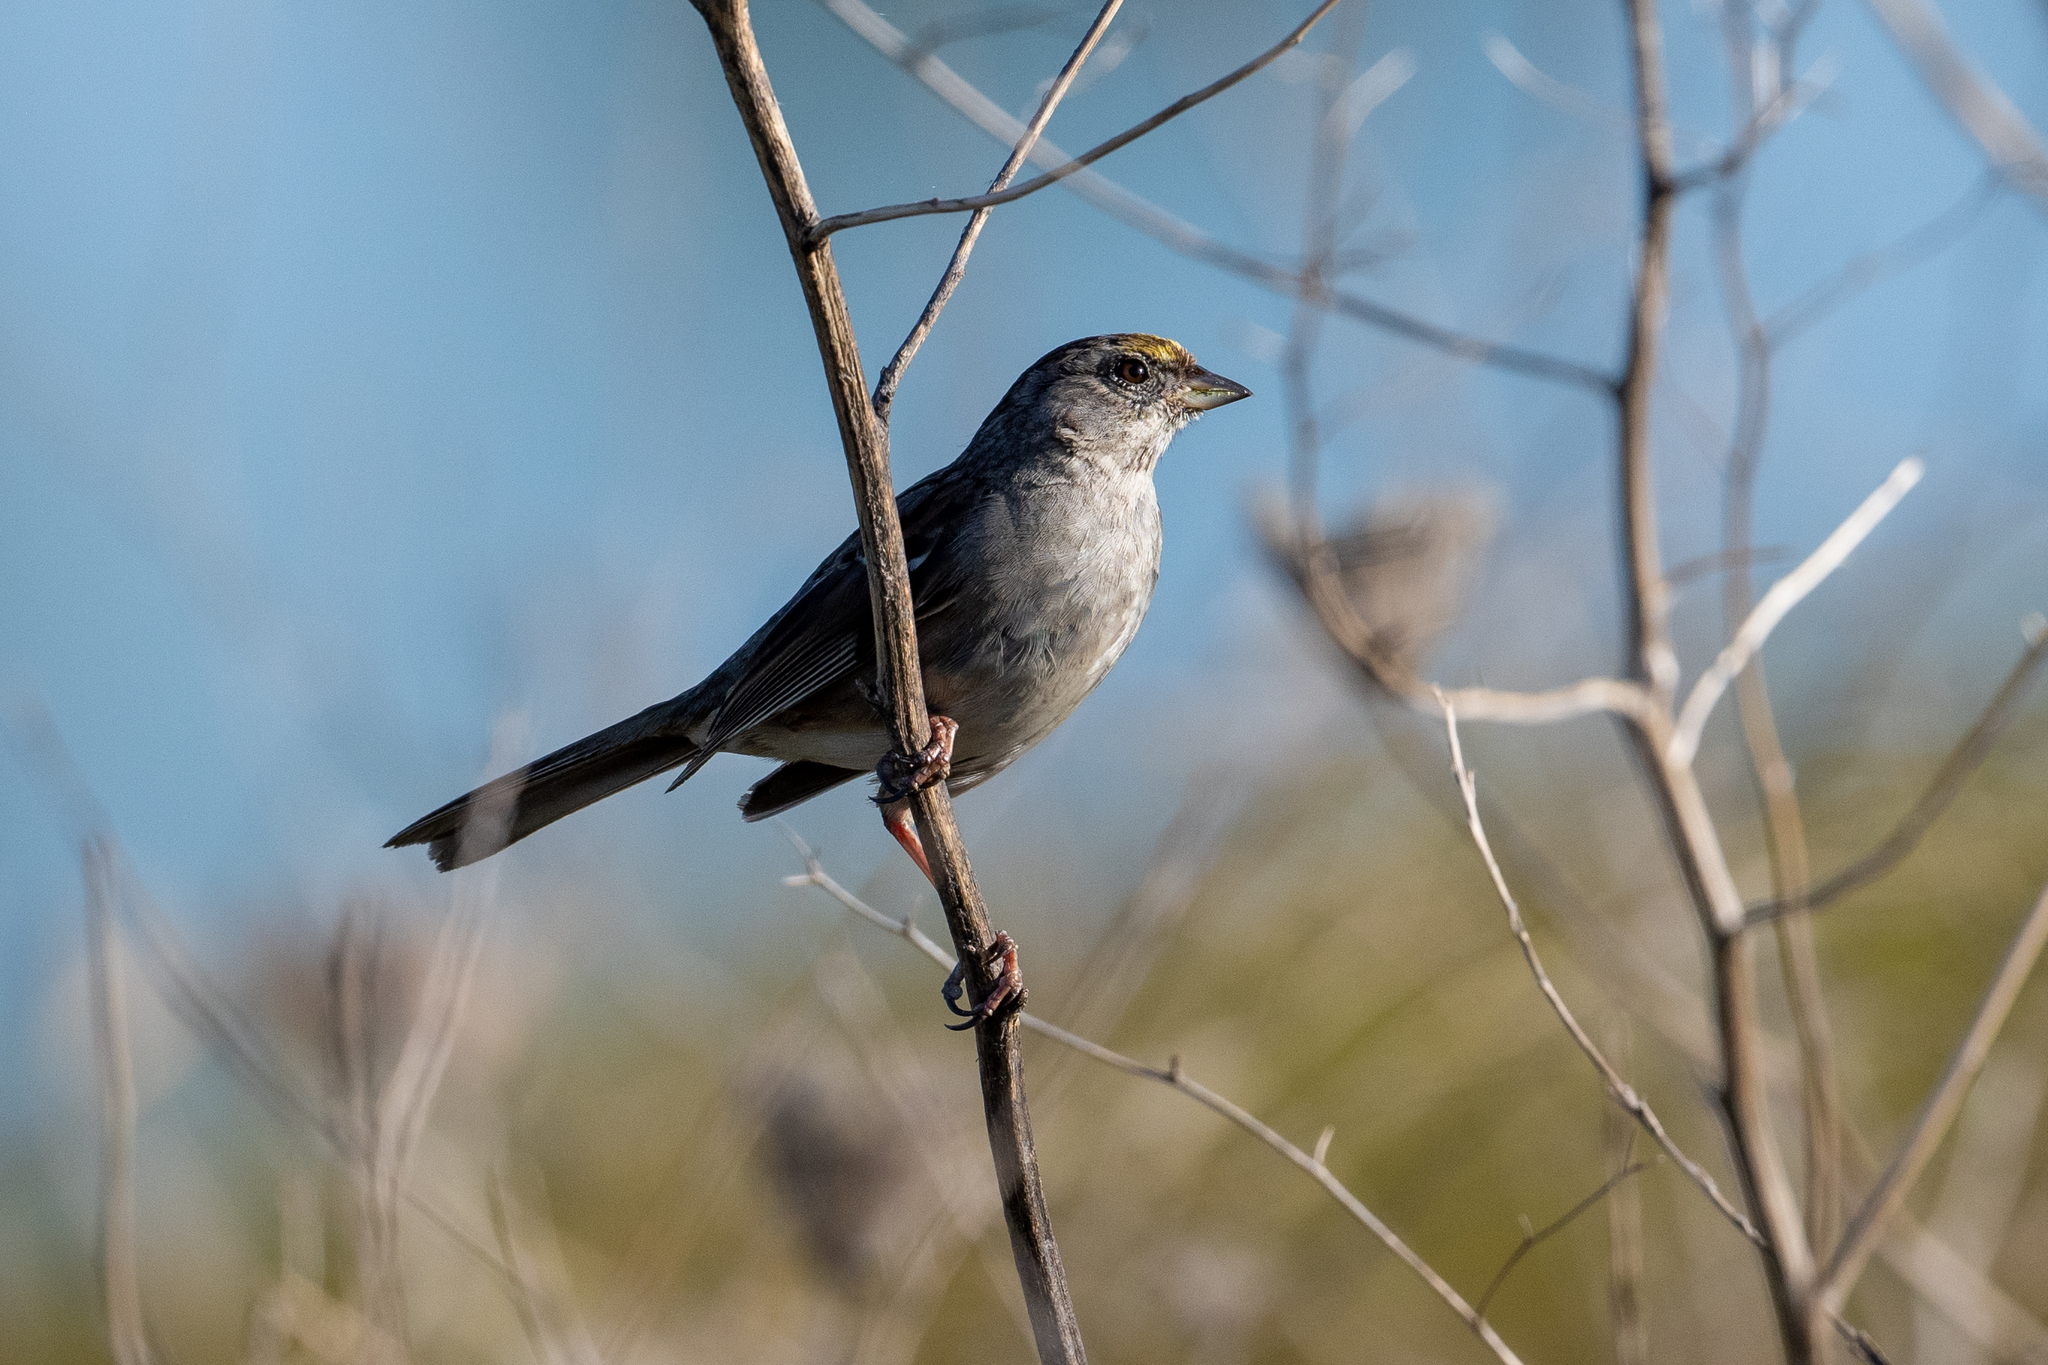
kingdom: Animalia
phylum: Chordata
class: Aves
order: Passeriformes
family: Passerellidae
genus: Zonotrichia
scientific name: Zonotrichia atricapilla
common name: Golden-crowned sparrow
